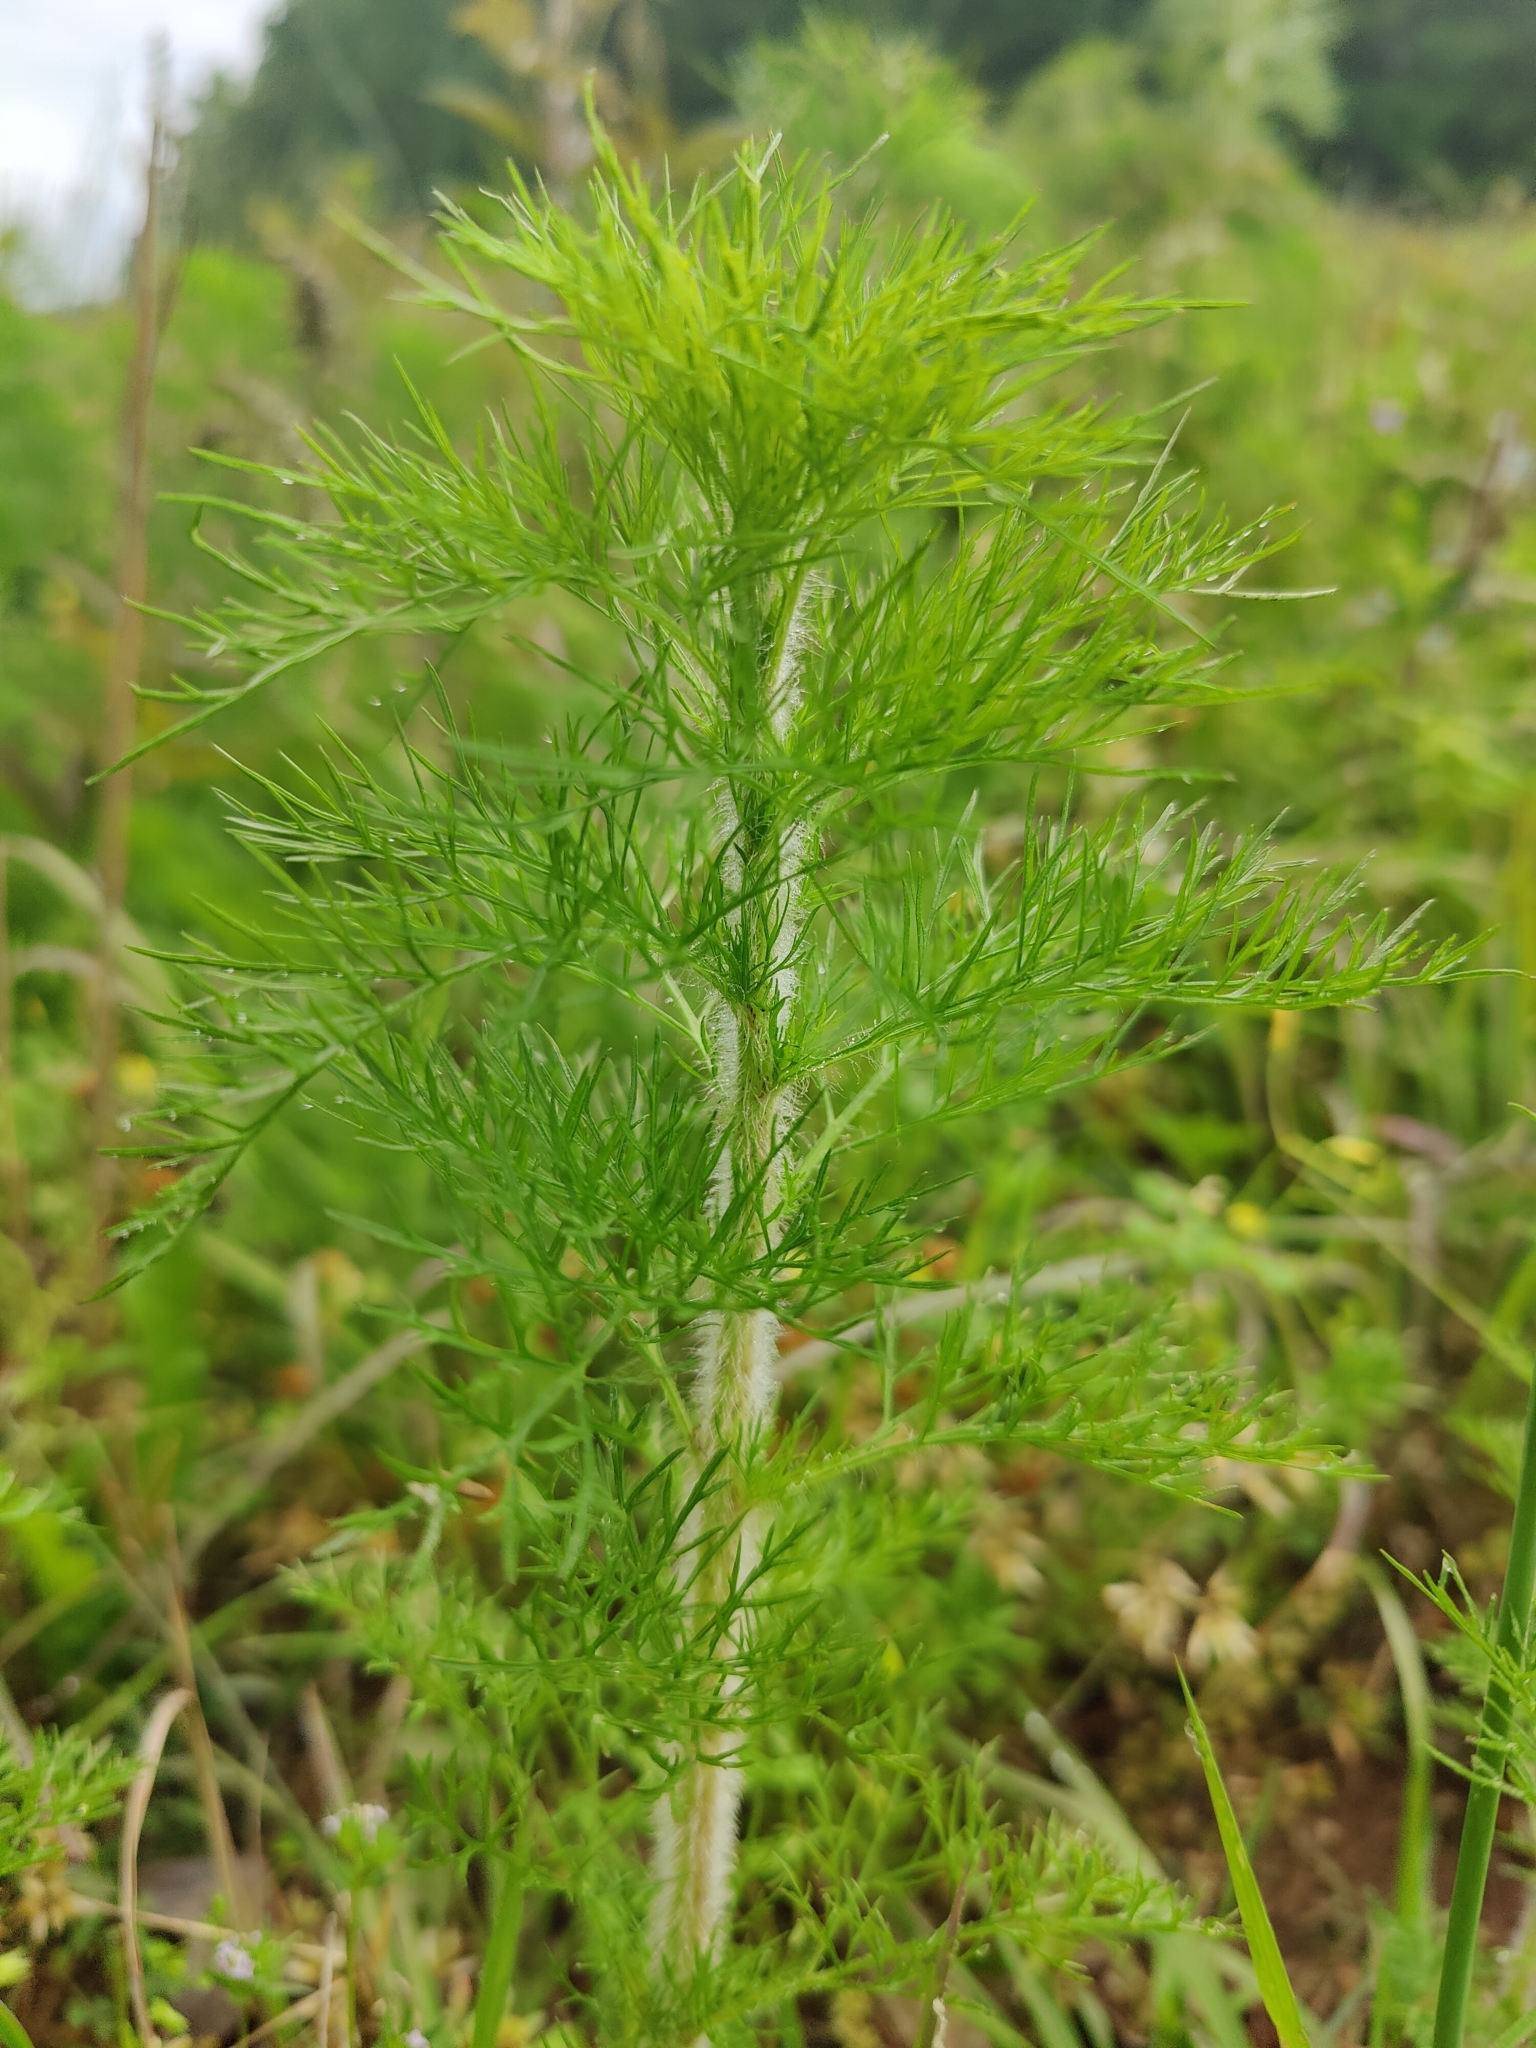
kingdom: Plantae
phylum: Tracheophyta
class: Magnoliopsida
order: Asterales
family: Asteraceae
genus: Eupatorium
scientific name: Eupatorium capillifolium
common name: Dog-fennel
